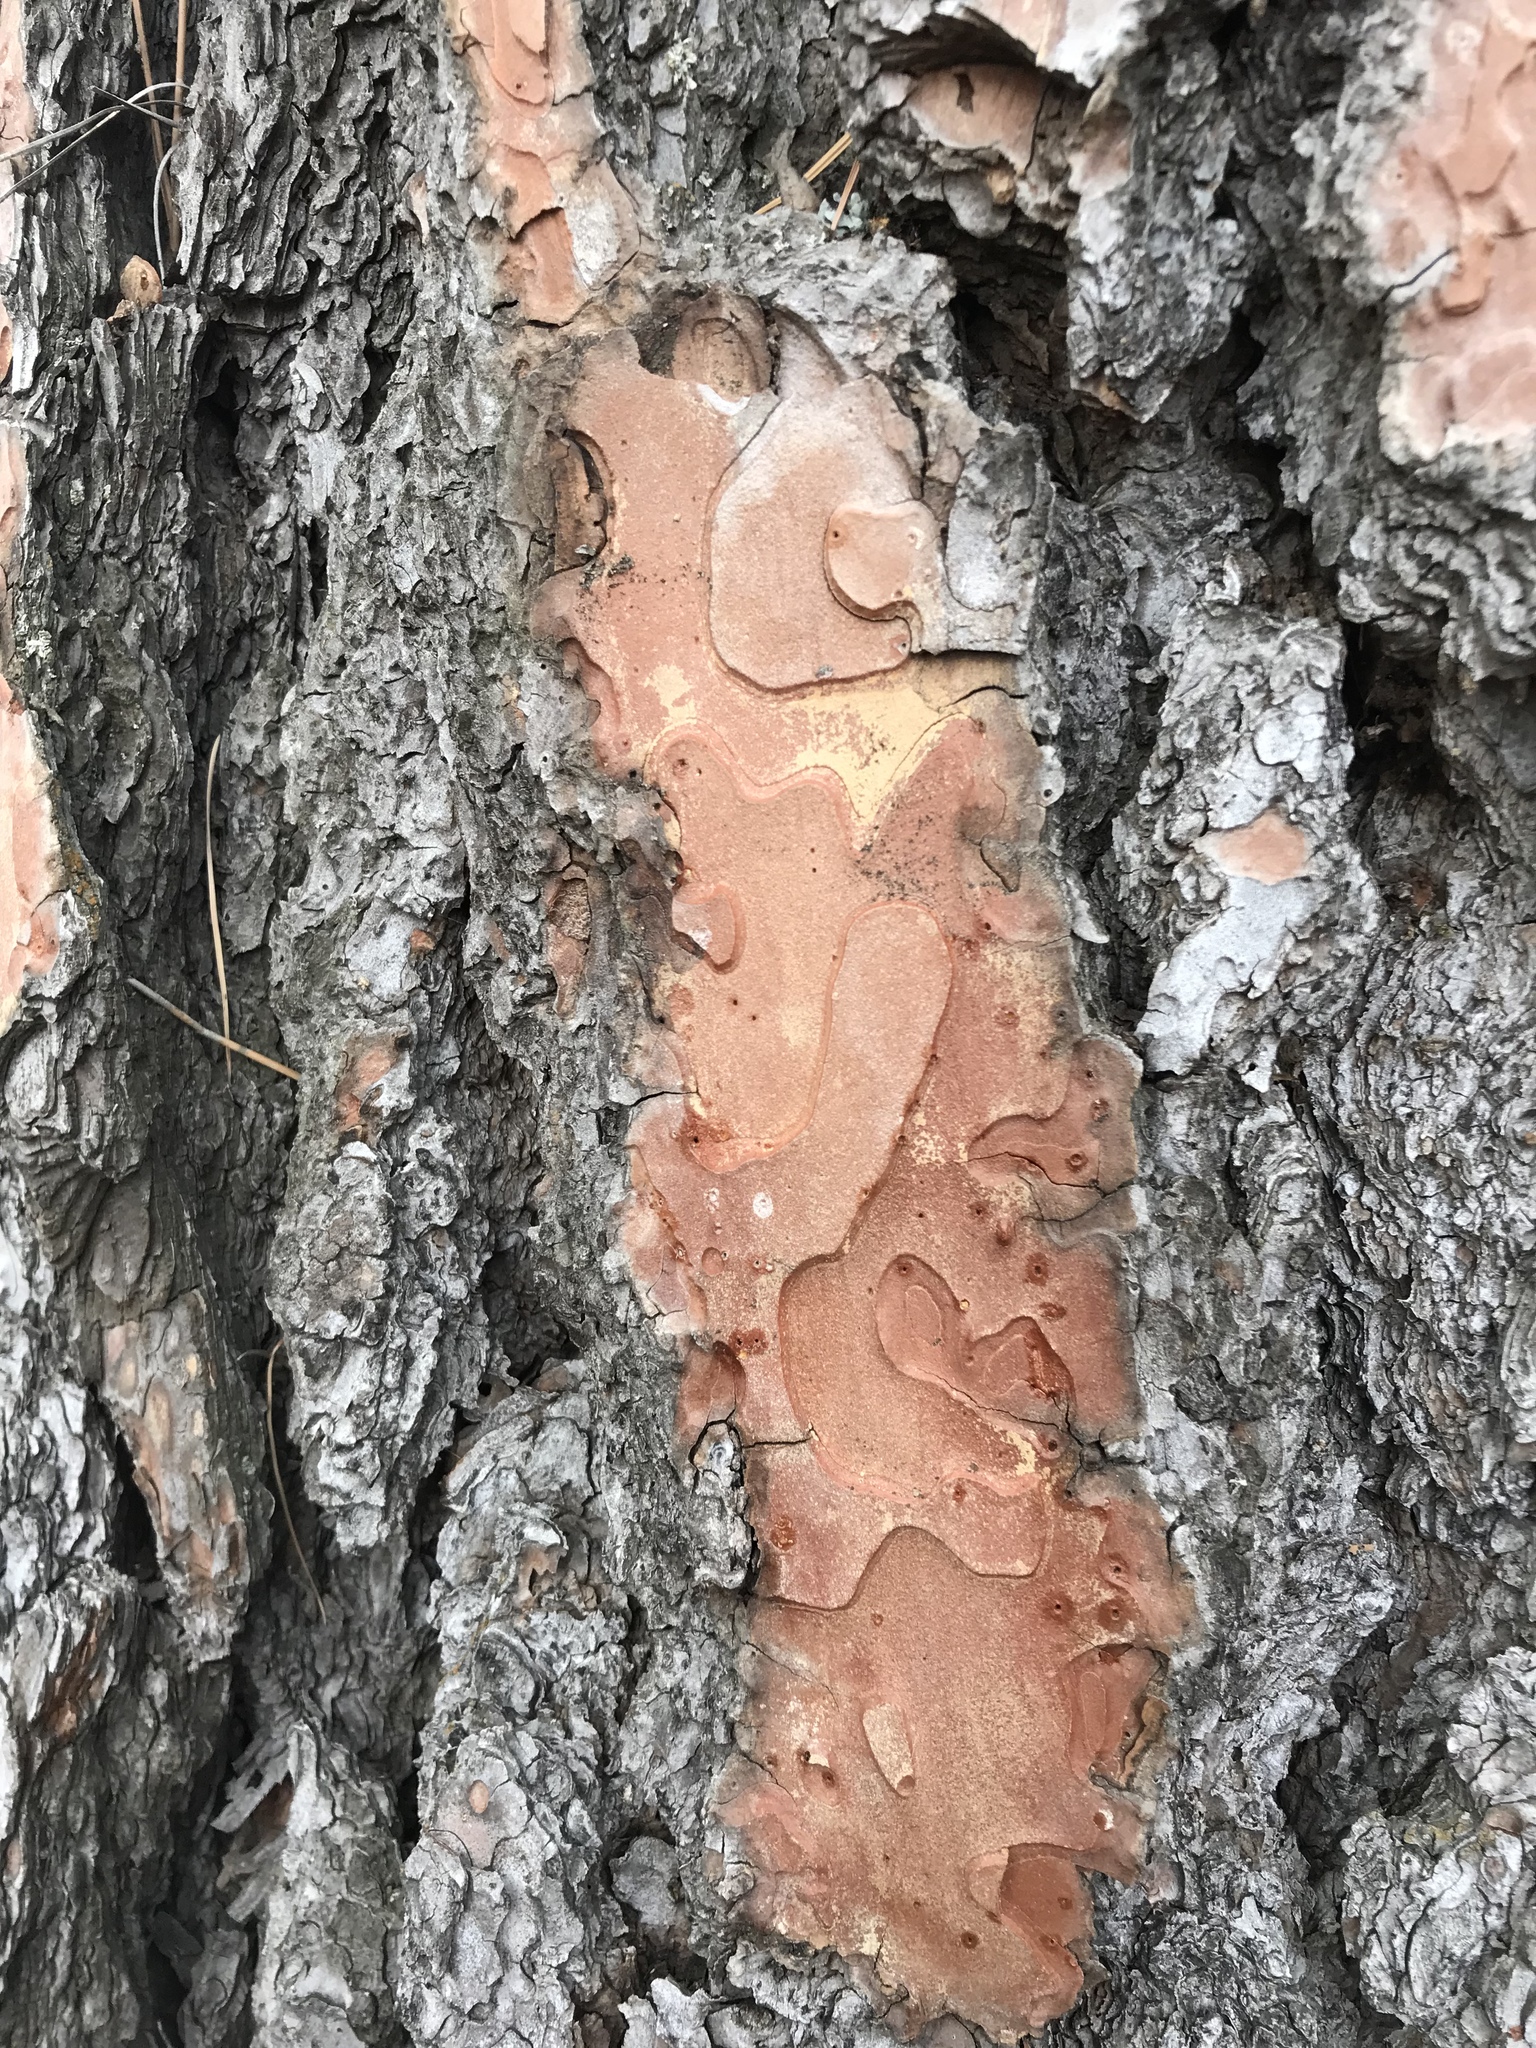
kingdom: Plantae
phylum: Tracheophyta
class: Pinopsida
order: Pinales
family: Pinaceae
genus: Pinus
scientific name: Pinus ponderosa
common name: Western yellow-pine
